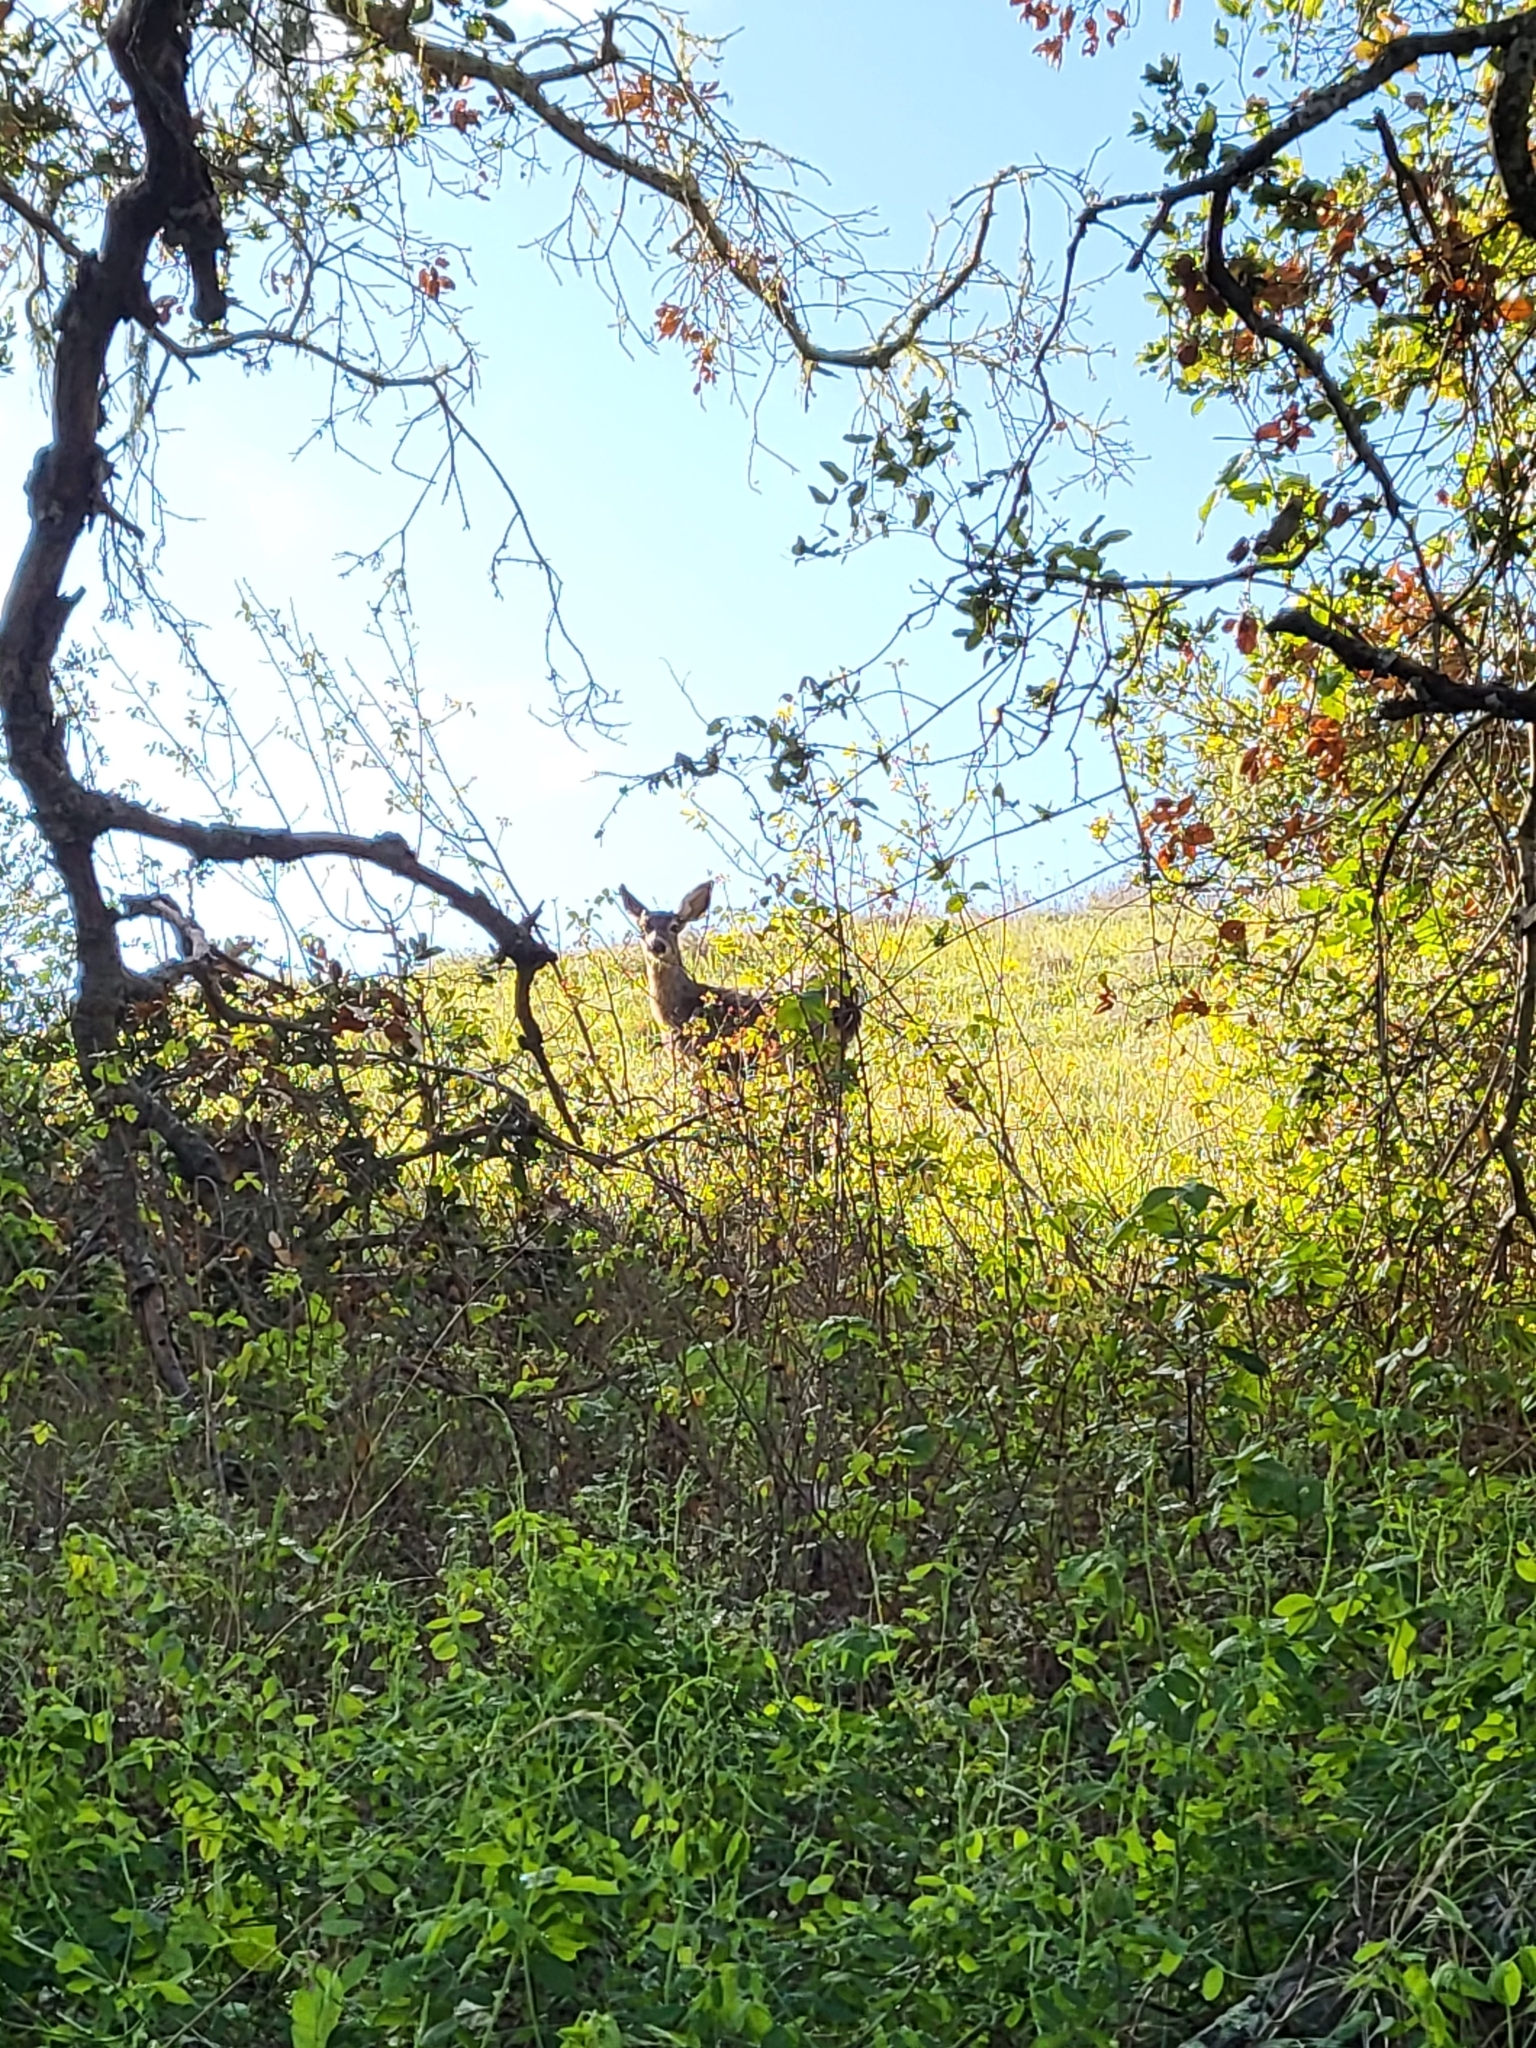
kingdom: Animalia
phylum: Chordata
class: Mammalia
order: Artiodactyla
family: Cervidae
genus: Odocoileus
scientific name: Odocoileus hemionus
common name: Mule deer
